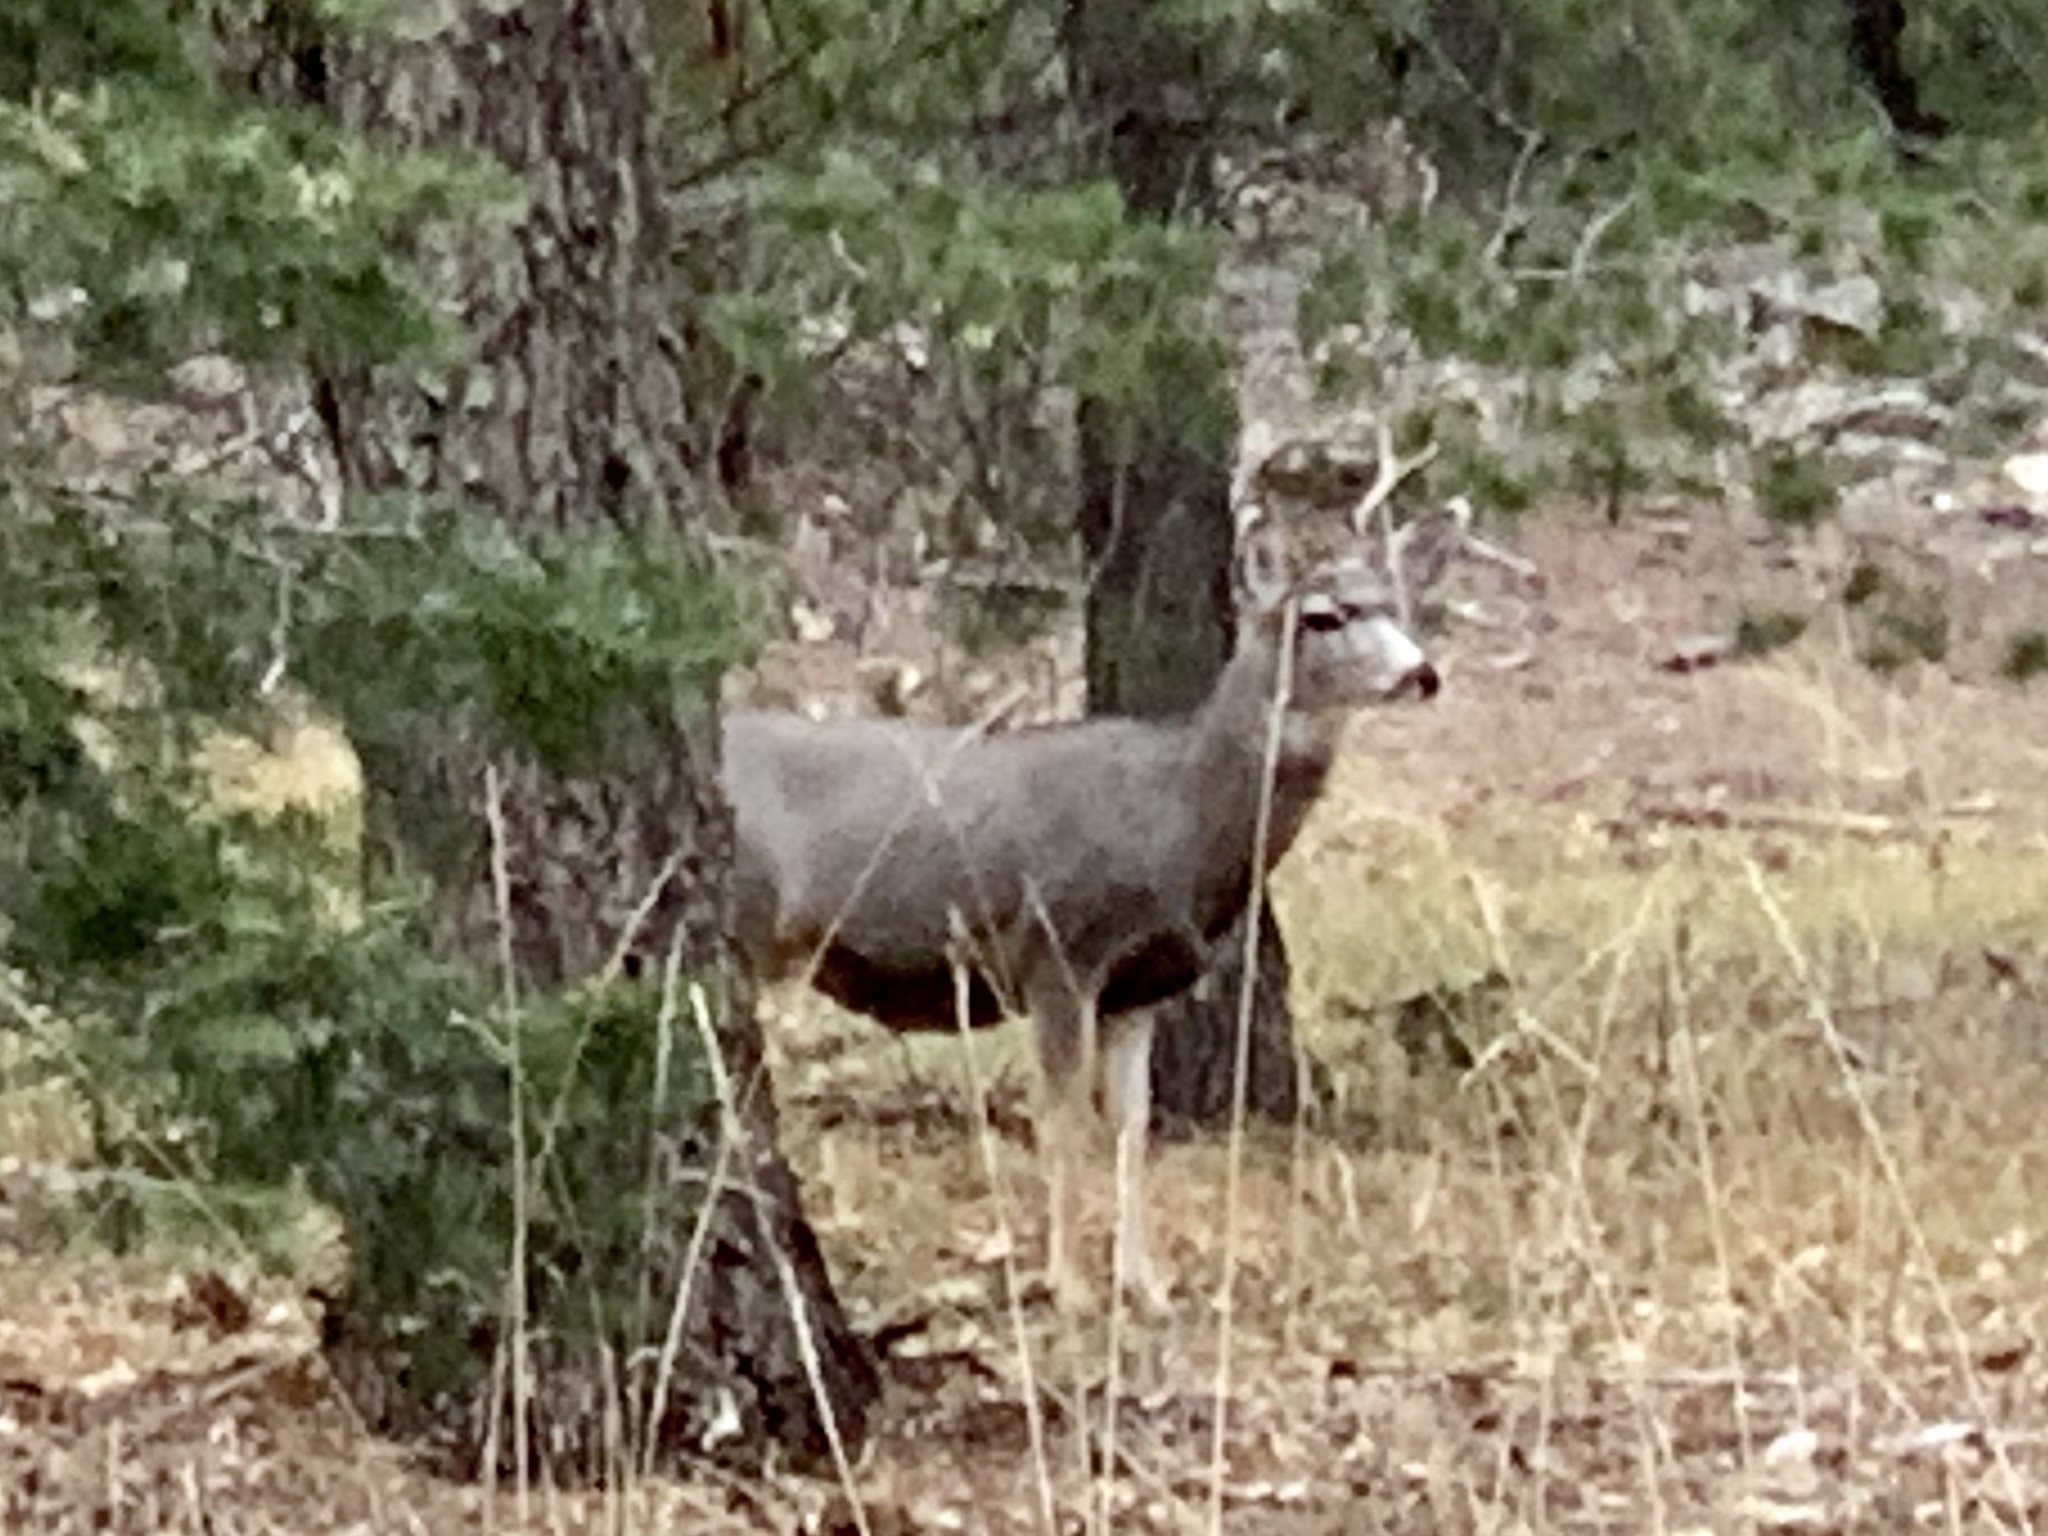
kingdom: Animalia
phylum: Chordata
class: Mammalia
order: Artiodactyla
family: Cervidae
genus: Odocoileus
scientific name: Odocoileus hemionus
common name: Mule deer
